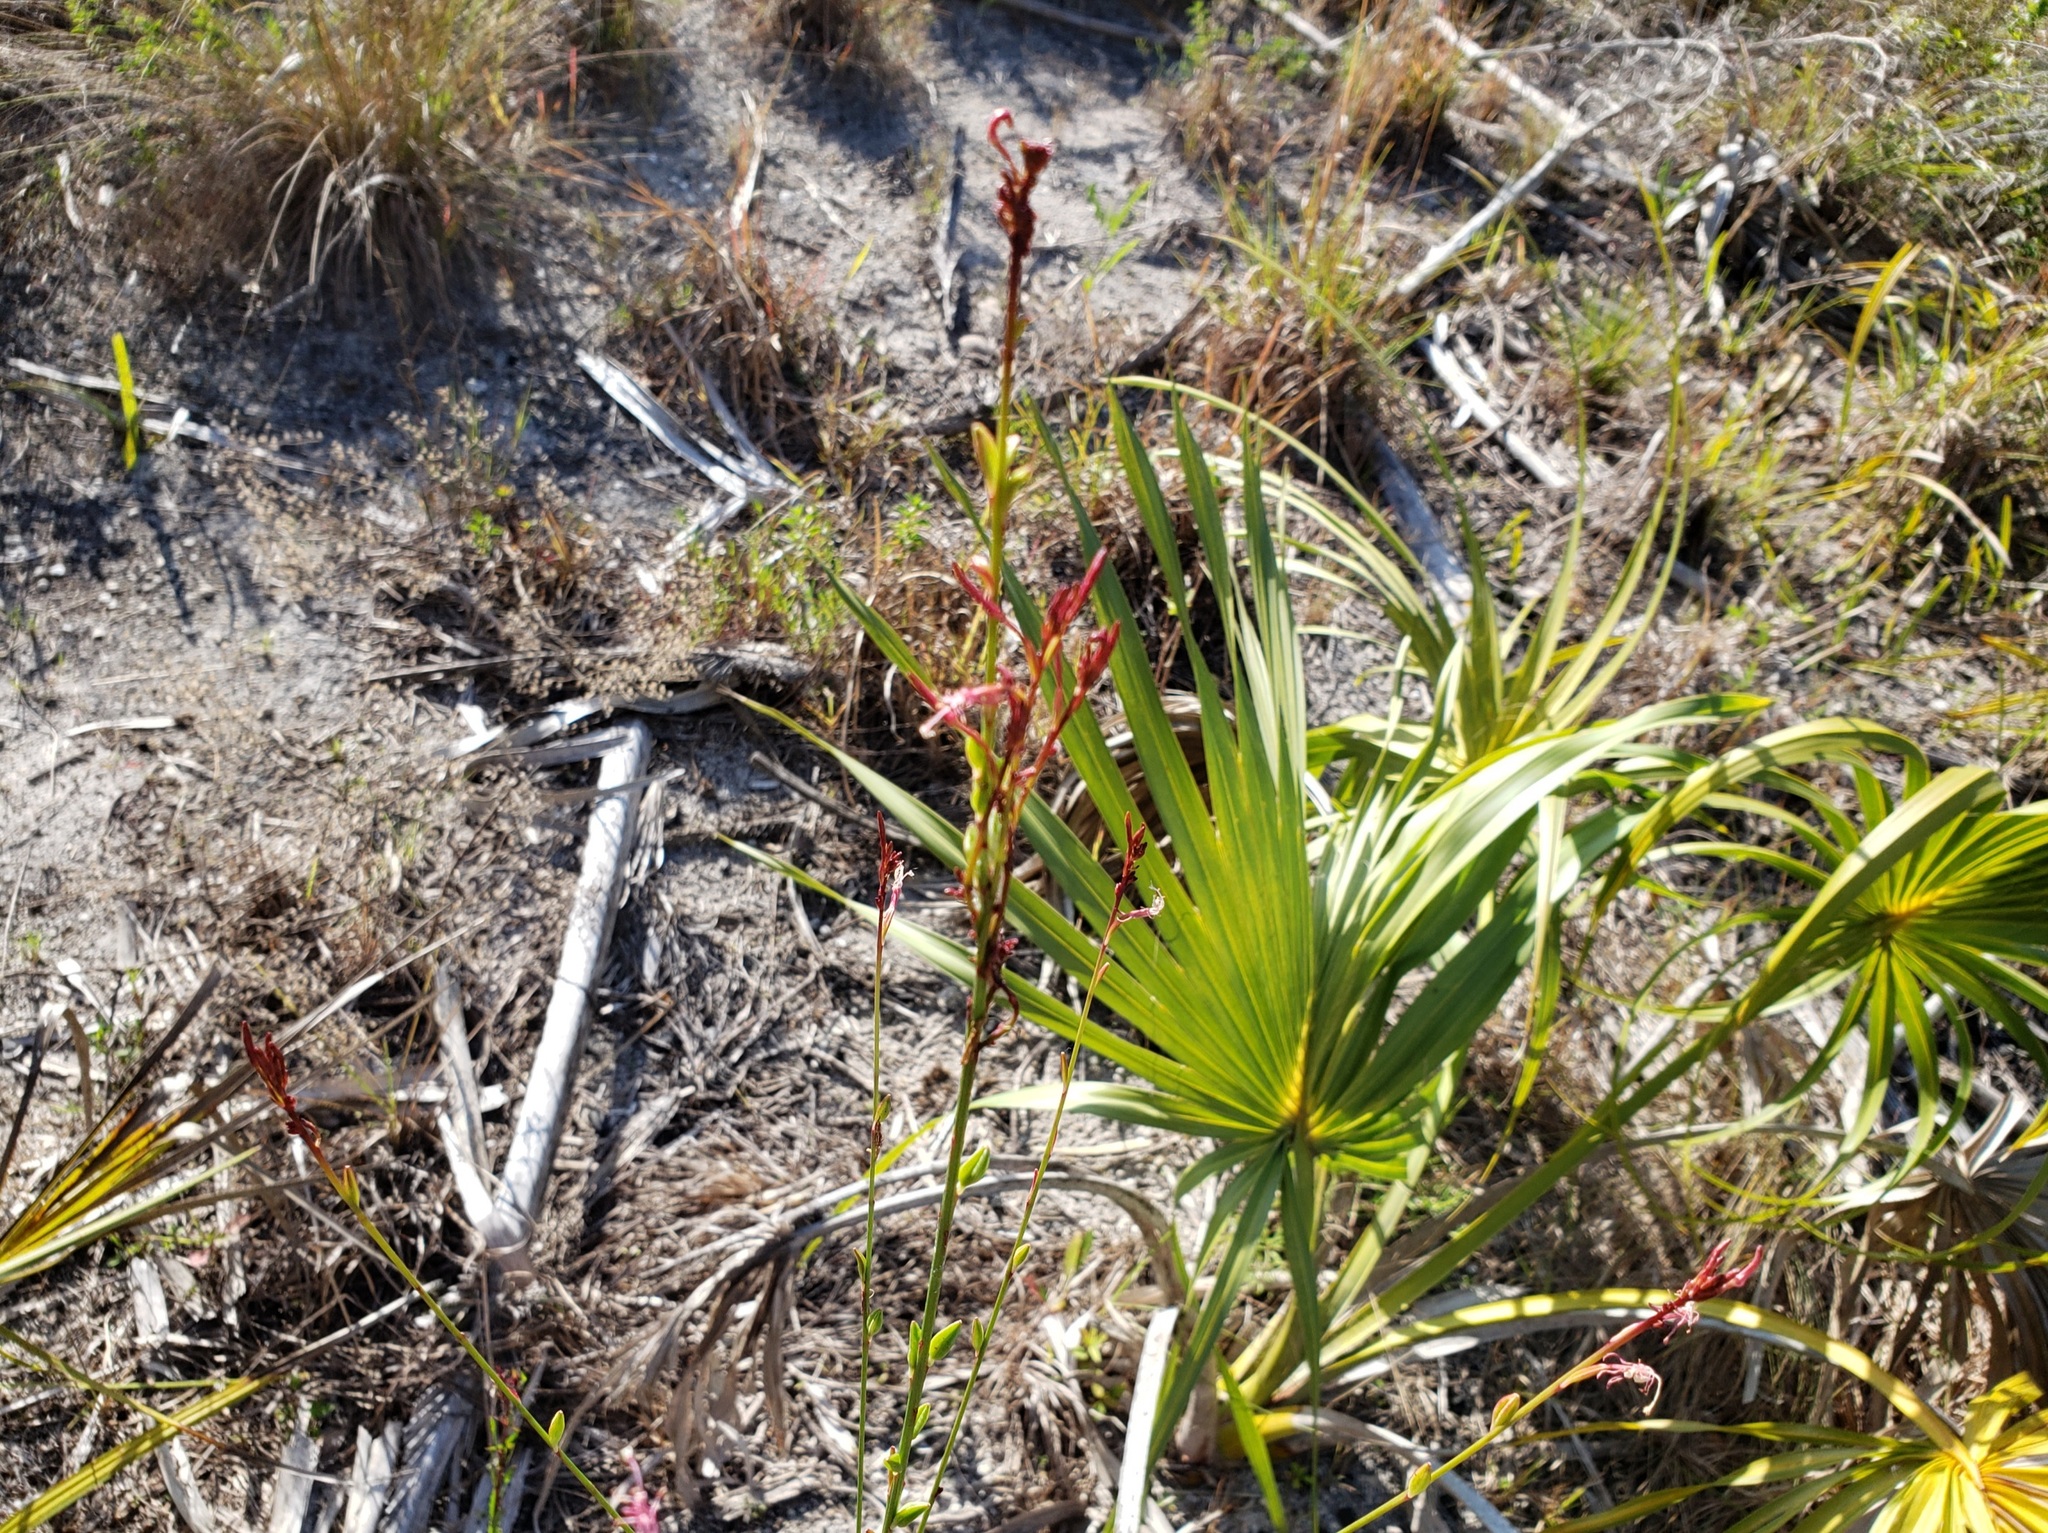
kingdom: Plantae
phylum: Tracheophyta
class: Magnoliopsida
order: Myrtales
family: Onagraceae
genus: Oenothera
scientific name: Oenothera simulans
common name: Southern beeblossom
